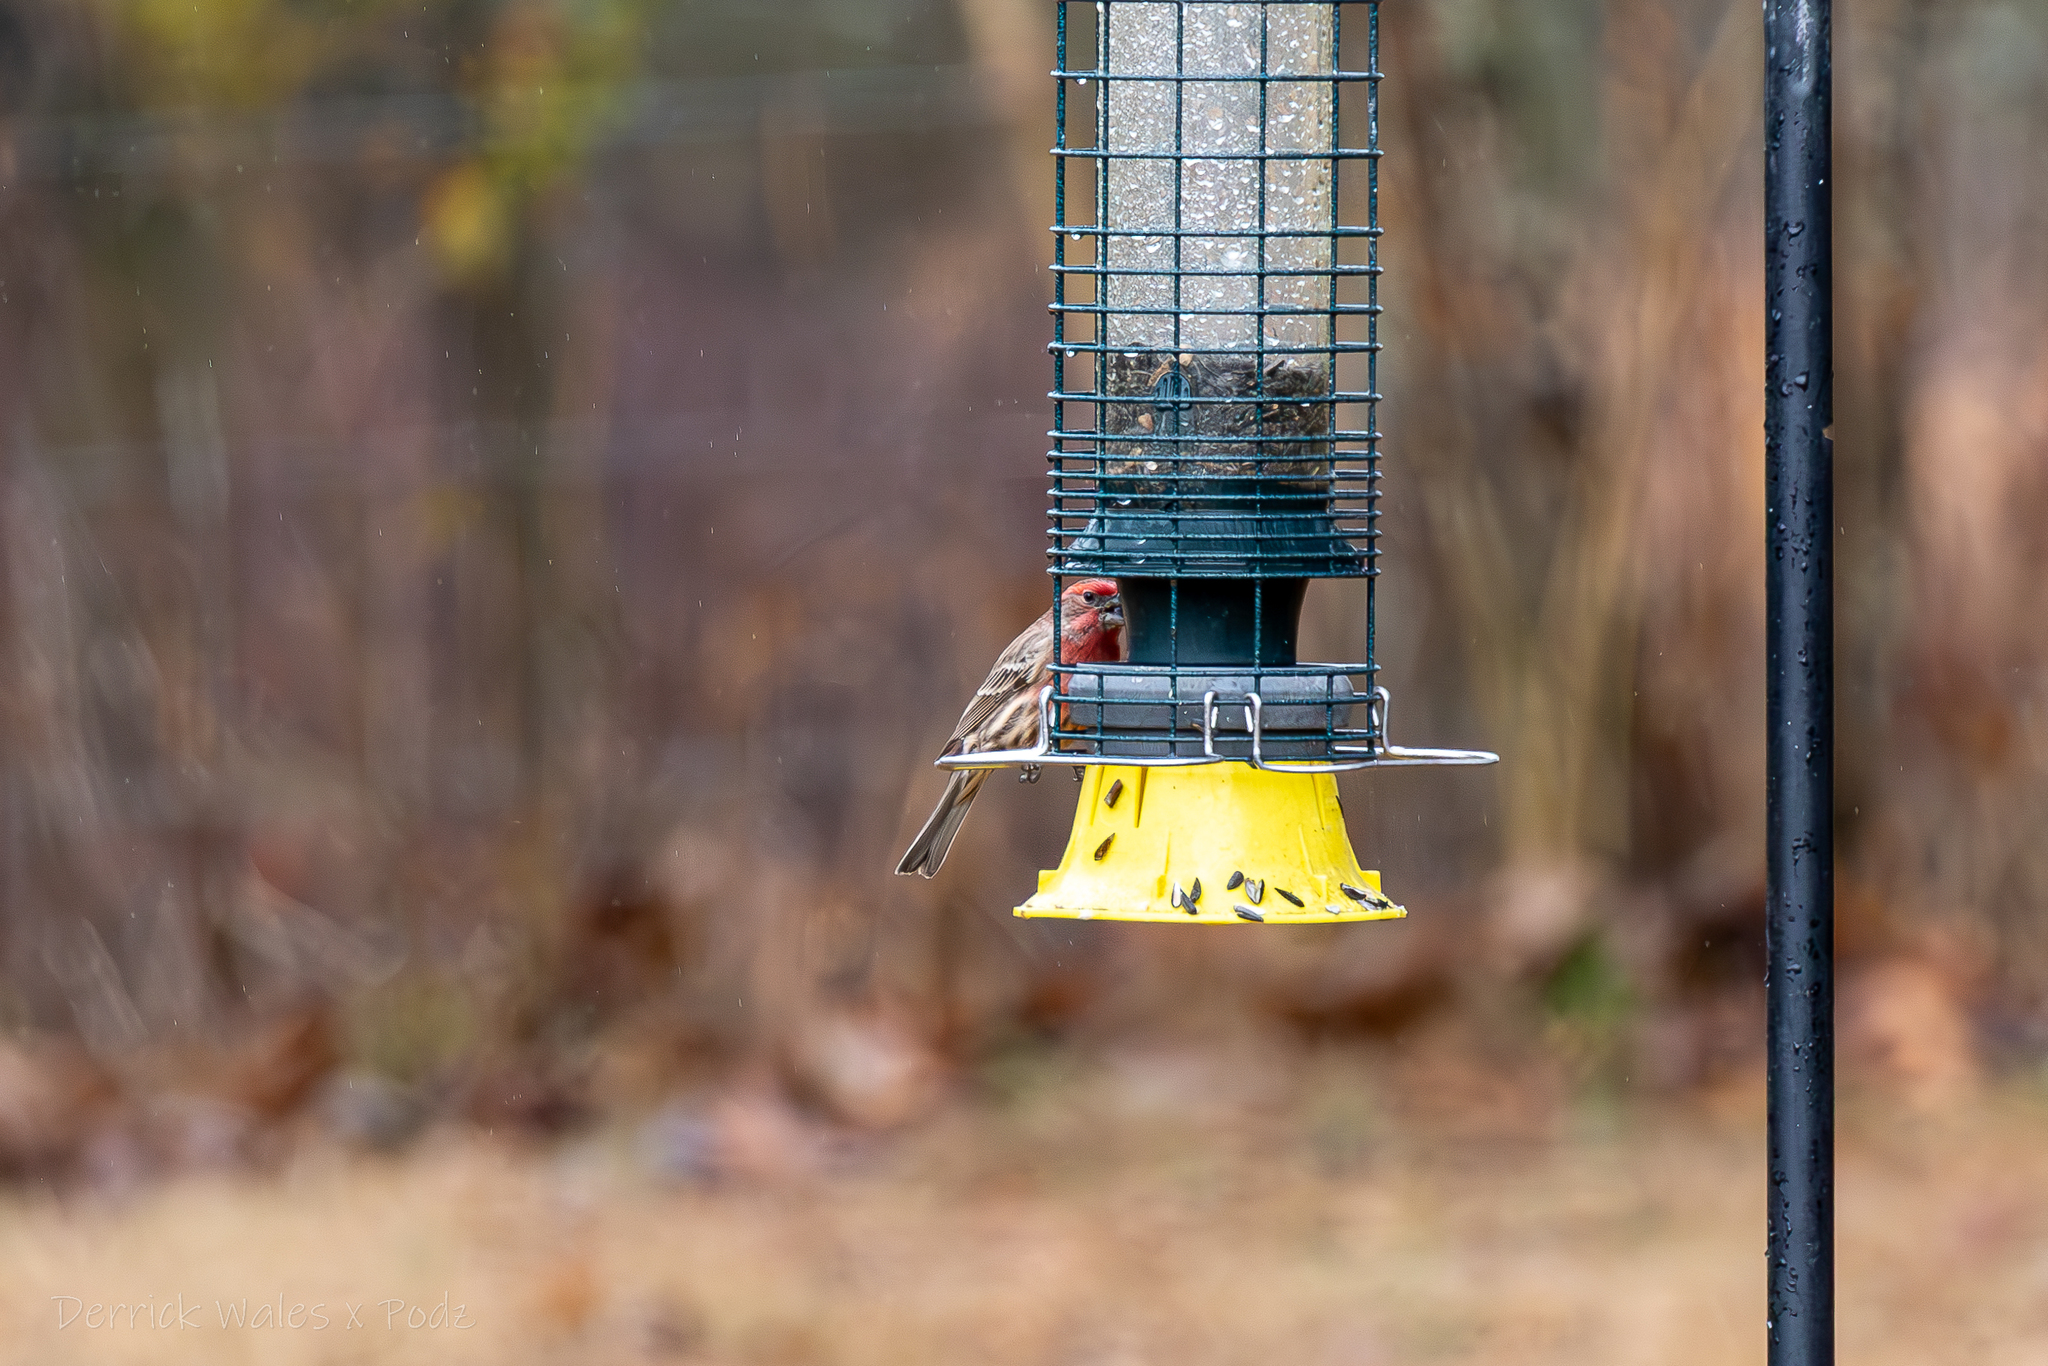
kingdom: Animalia
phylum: Chordata
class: Aves
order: Passeriformes
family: Fringillidae
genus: Haemorhous
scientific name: Haemorhous mexicanus
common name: House finch
